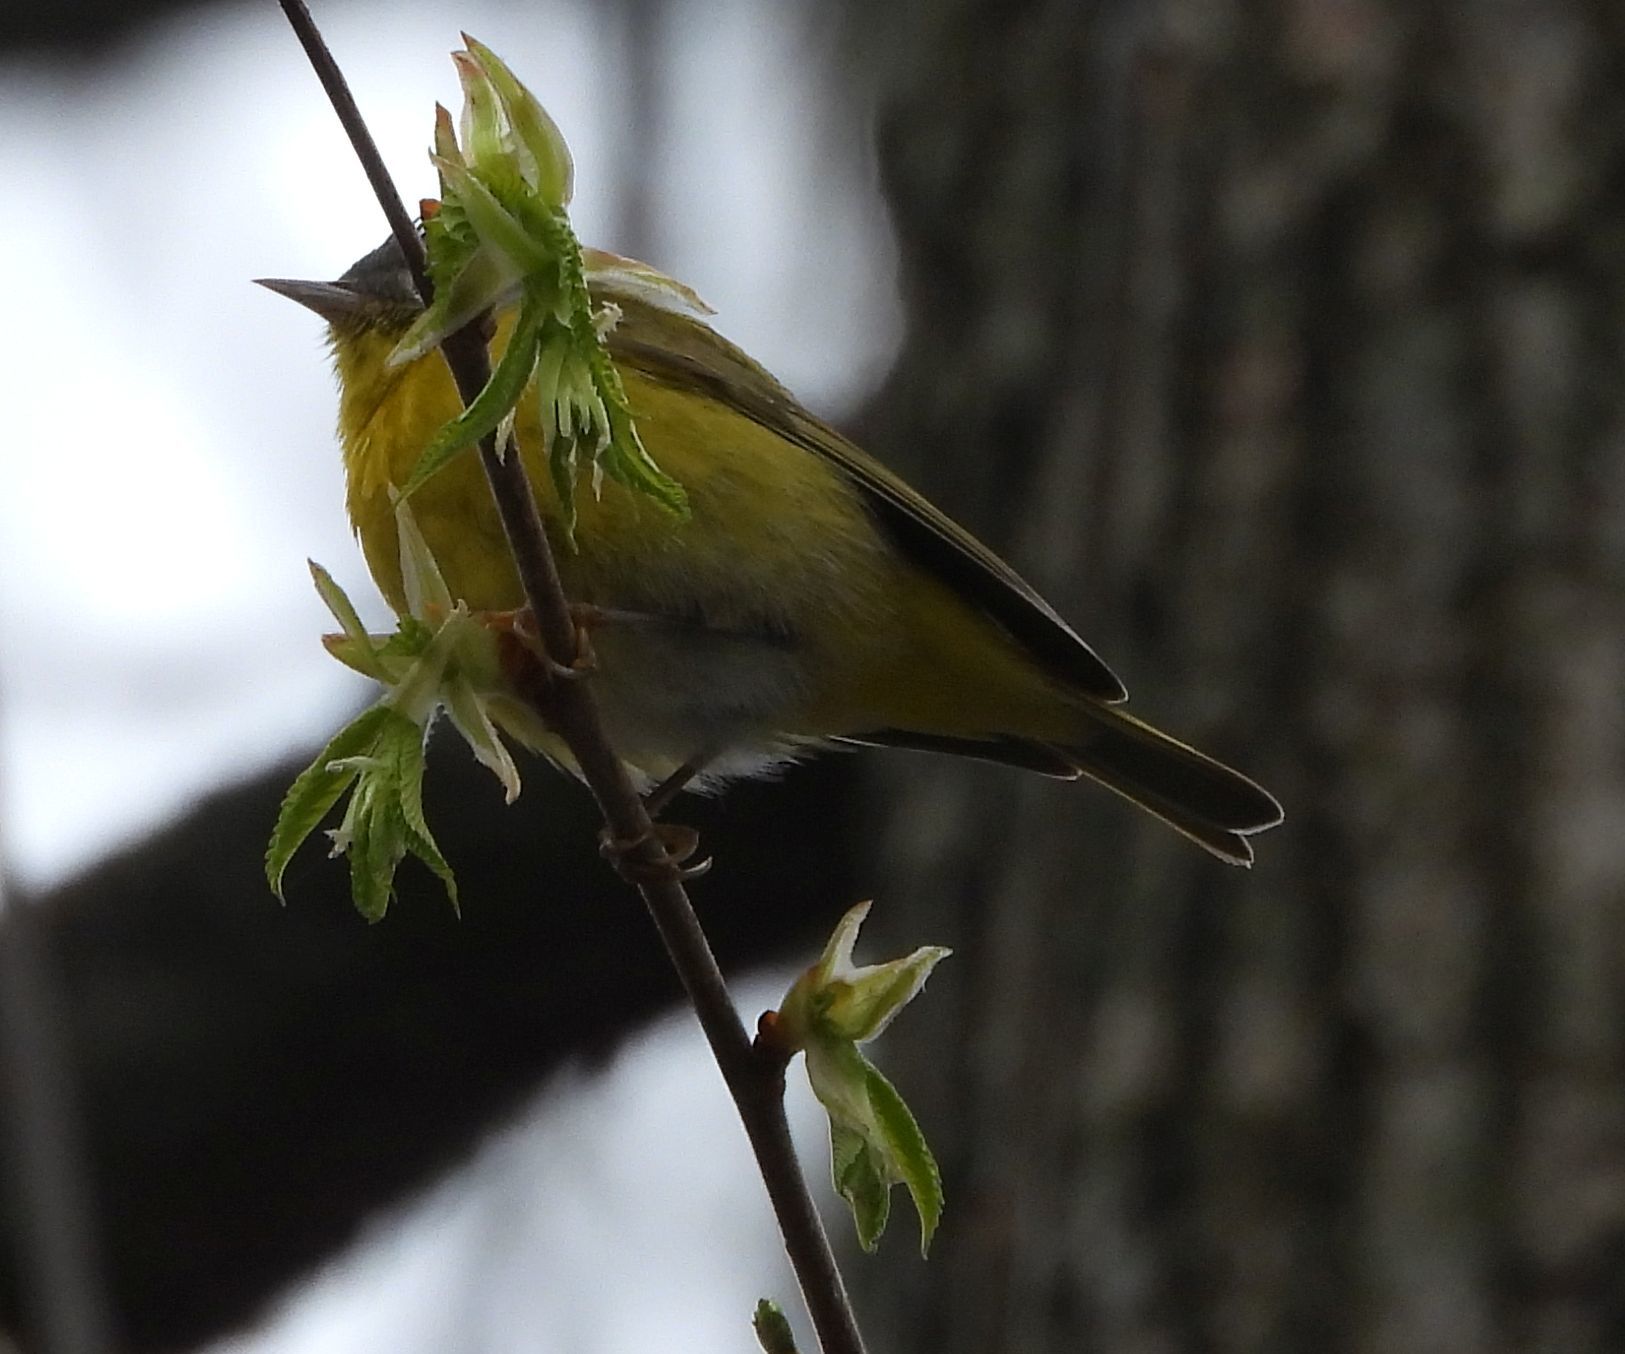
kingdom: Animalia
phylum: Chordata
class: Aves
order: Passeriformes
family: Parulidae
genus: Leiothlypis
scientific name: Leiothlypis ruficapilla
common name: Nashville warbler
